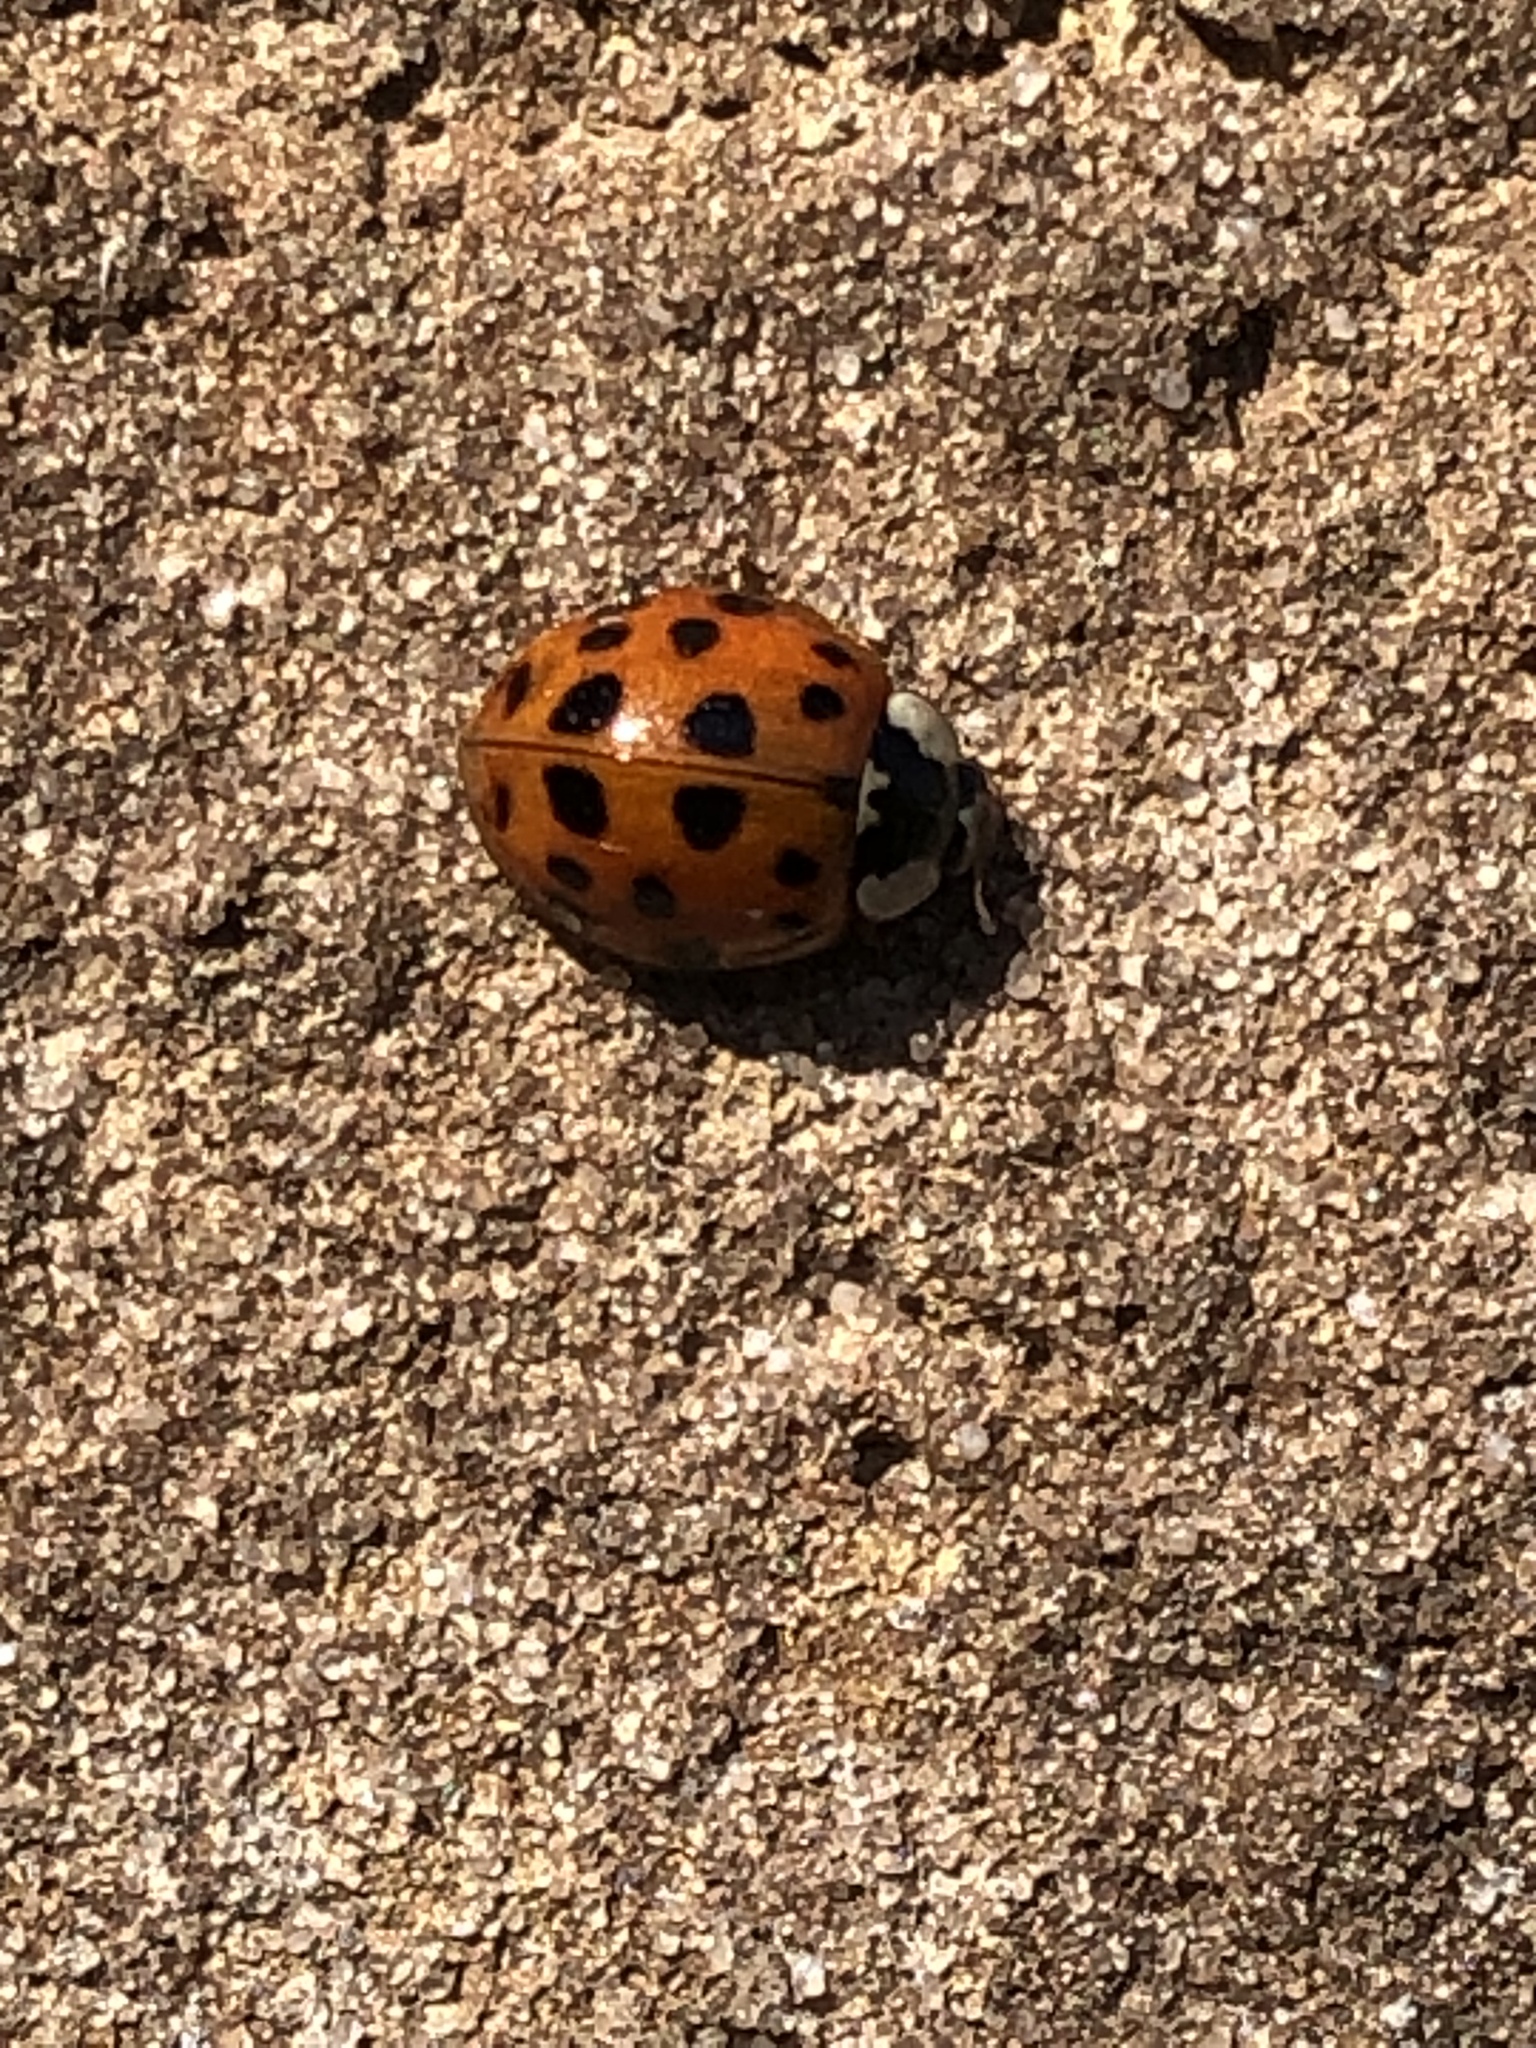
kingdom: Animalia
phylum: Arthropoda
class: Insecta
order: Coleoptera
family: Coccinellidae
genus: Harmonia
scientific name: Harmonia axyridis
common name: Harlequin ladybird
